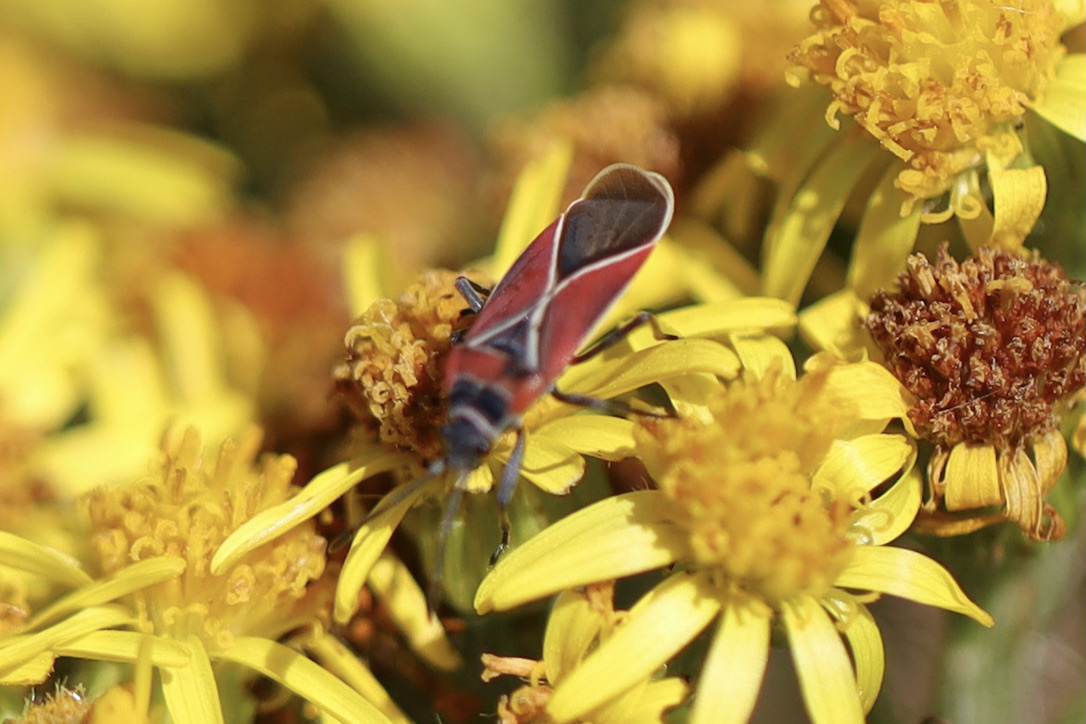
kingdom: Animalia
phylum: Arthropoda
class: Insecta
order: Hemiptera
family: Lygaeidae
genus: Neacoryphus
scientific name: Neacoryphus bicrucis
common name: Lygaeid bug
